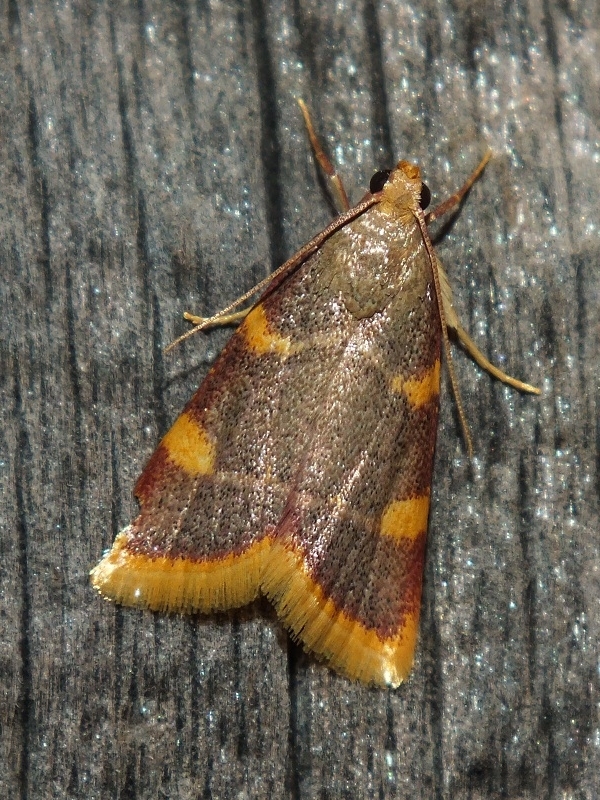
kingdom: Animalia
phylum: Arthropoda
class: Insecta
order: Lepidoptera
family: Pyralidae
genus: Hypsopygia
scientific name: Hypsopygia costalis
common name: Gold triangle
